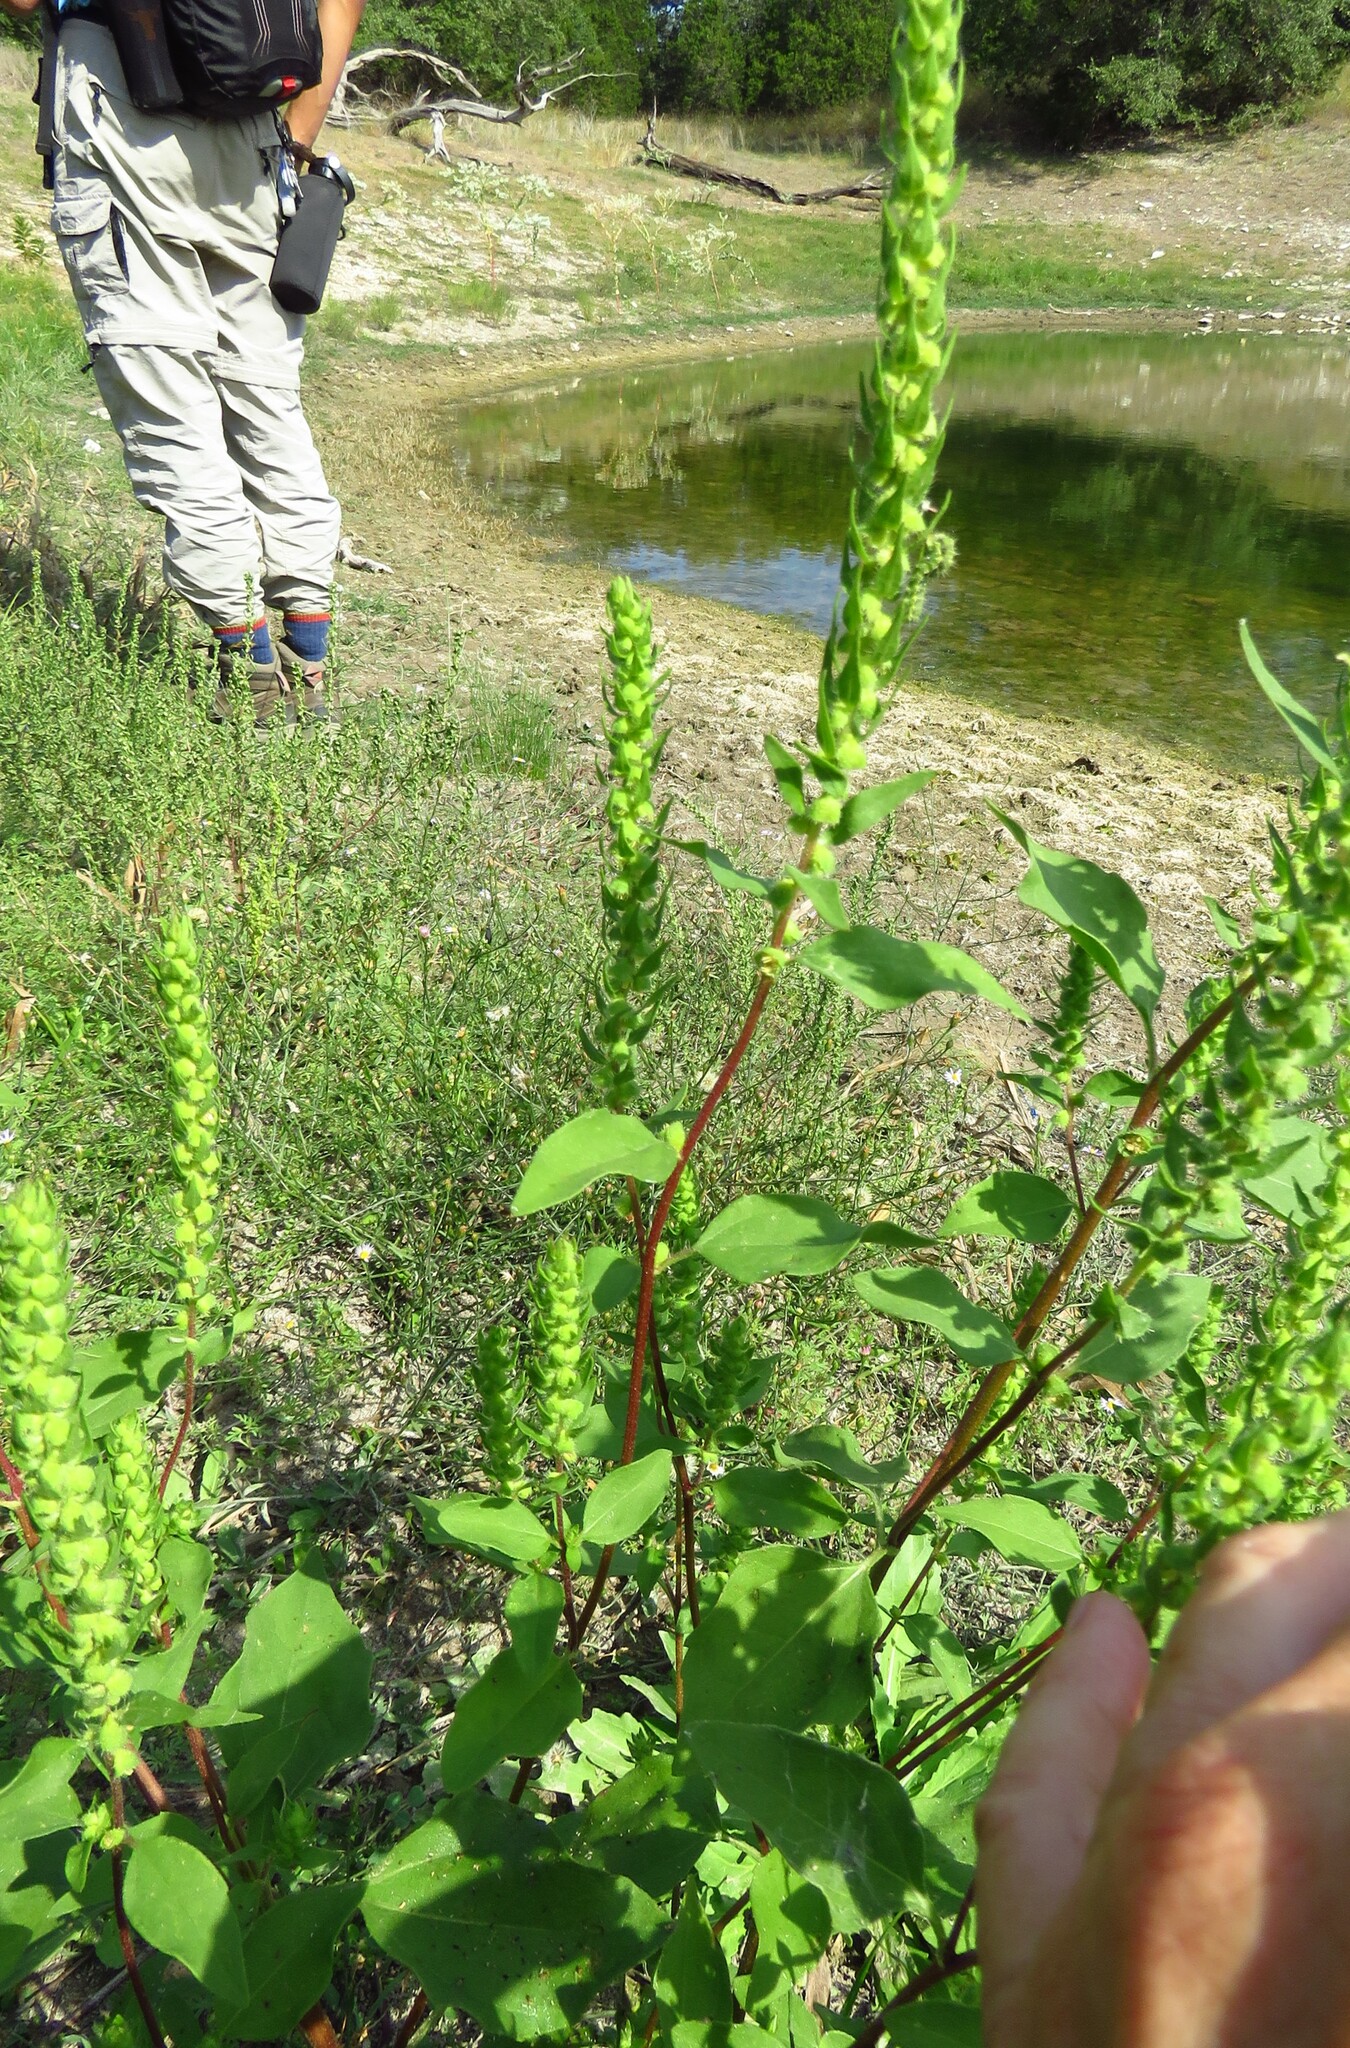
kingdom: Plantae
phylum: Tracheophyta
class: Magnoliopsida
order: Asterales
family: Asteraceae
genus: Iva
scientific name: Iva annua
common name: Marsh-elder
